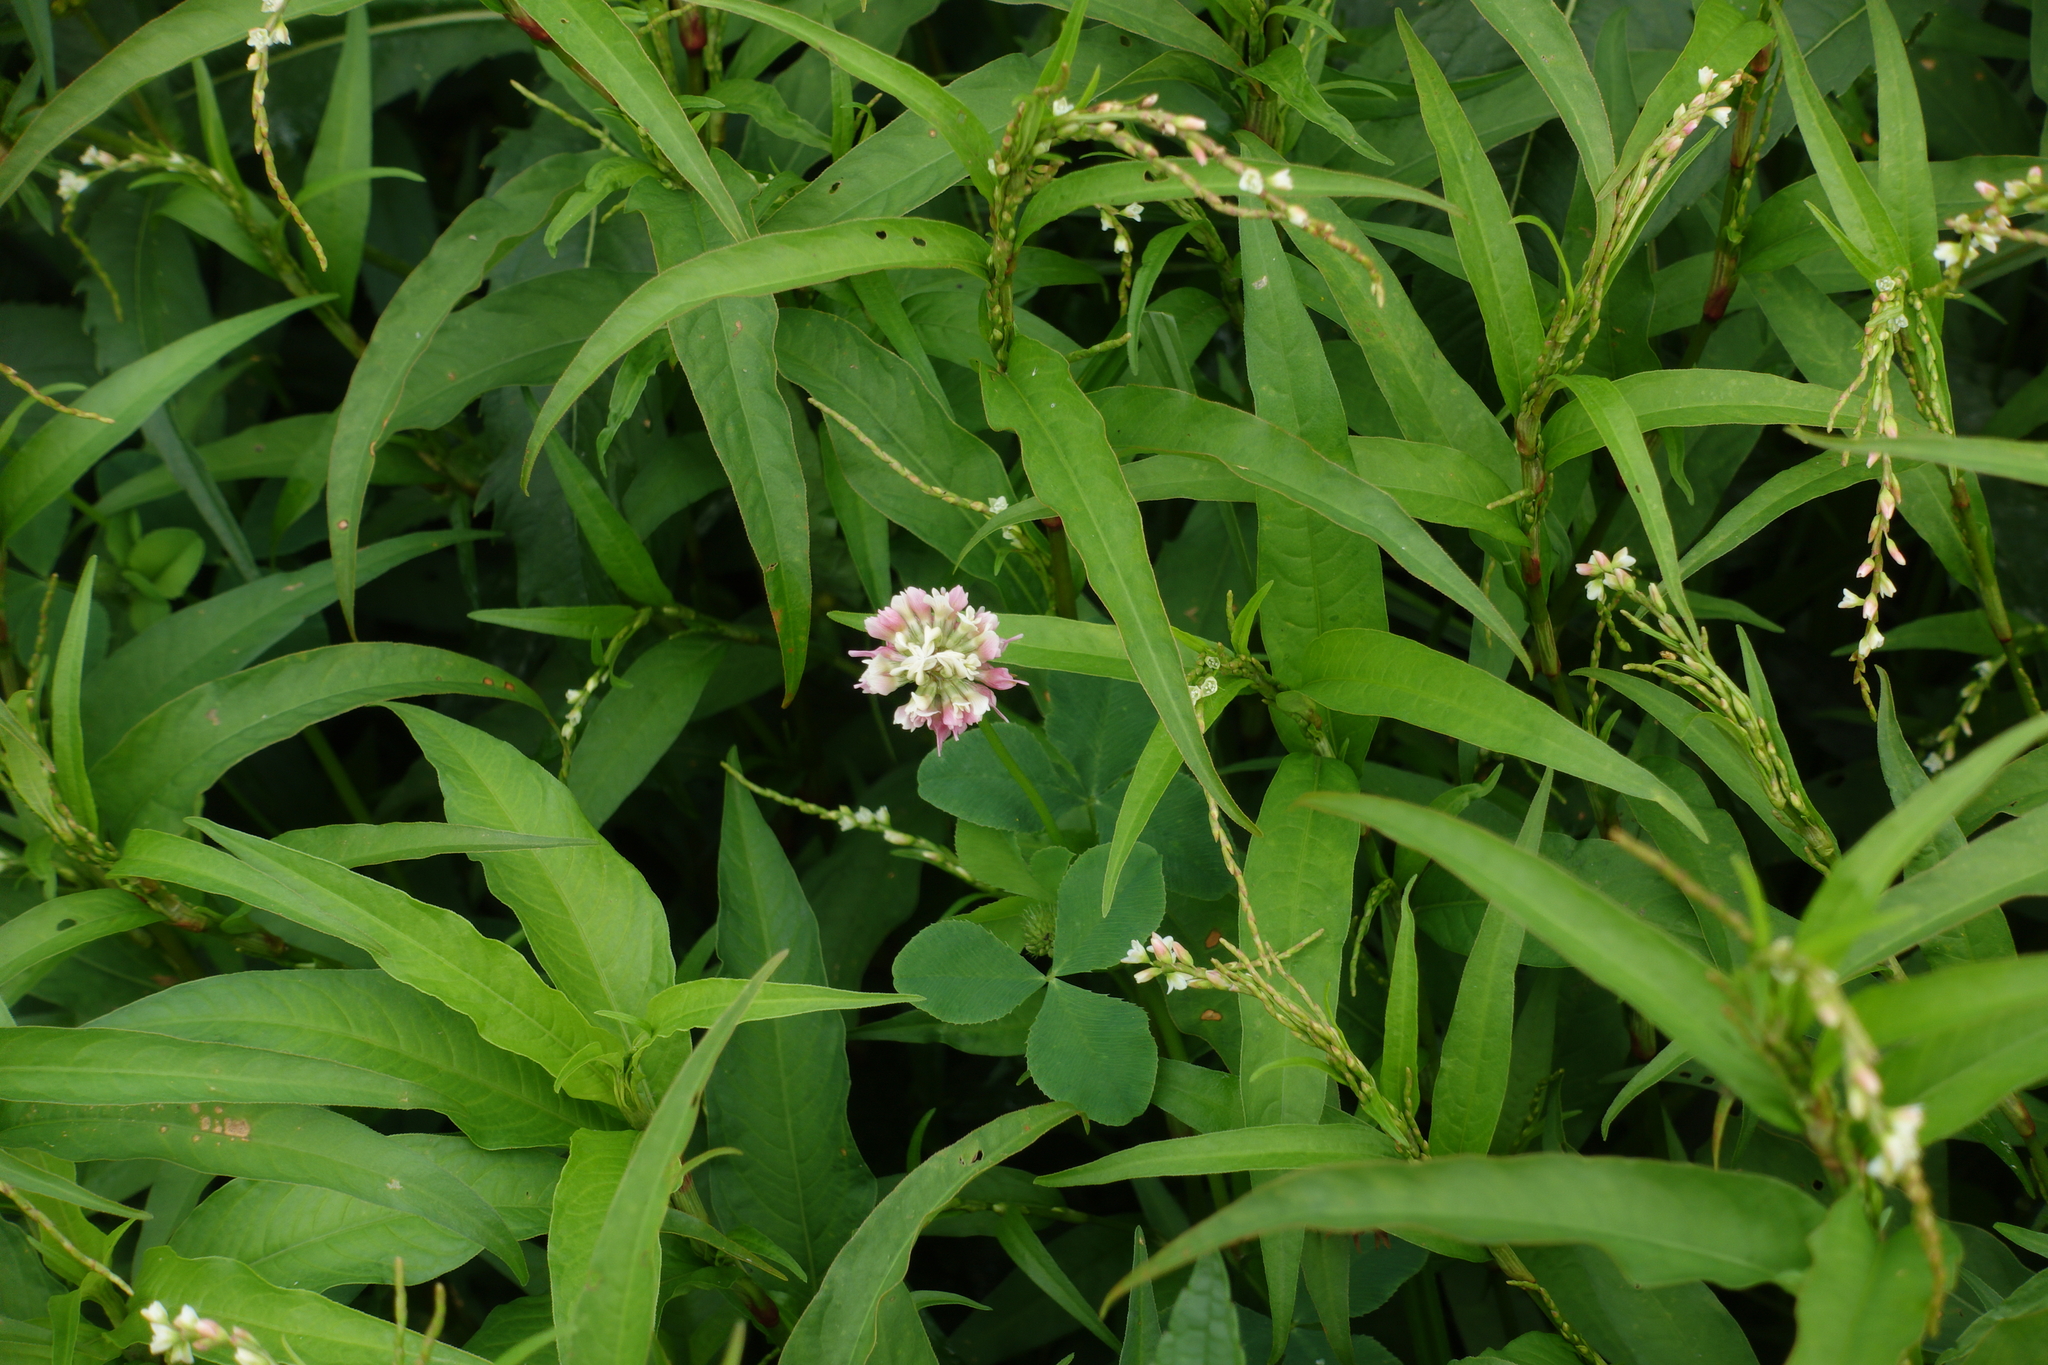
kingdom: Plantae
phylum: Tracheophyta
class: Magnoliopsida
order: Fabales
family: Fabaceae
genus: Trifolium
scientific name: Trifolium hybridum
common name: Alsike clover
